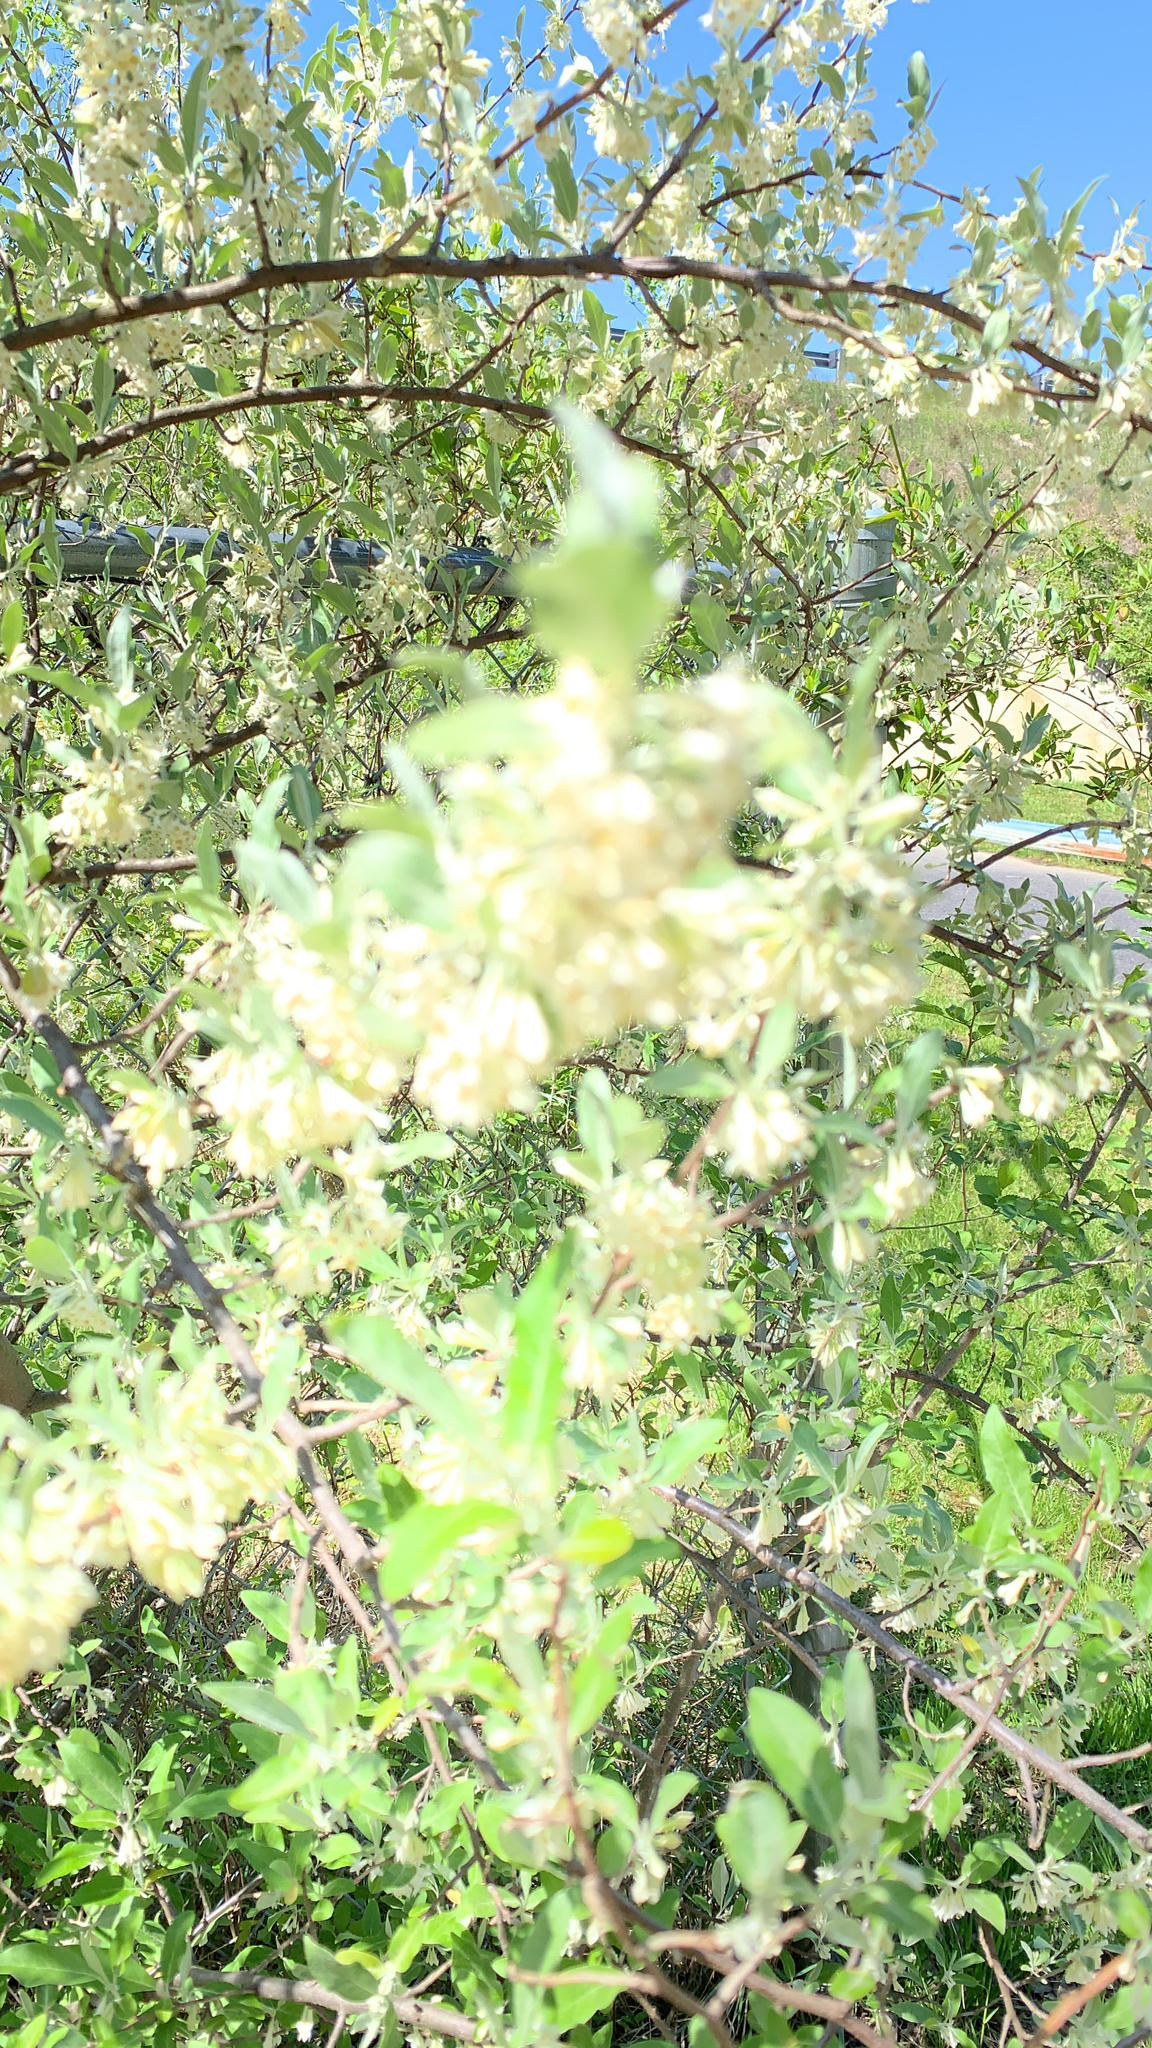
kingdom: Plantae
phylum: Tracheophyta
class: Magnoliopsida
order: Rosales
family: Elaeagnaceae
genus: Elaeagnus
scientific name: Elaeagnus umbellata
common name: Autumn olive
